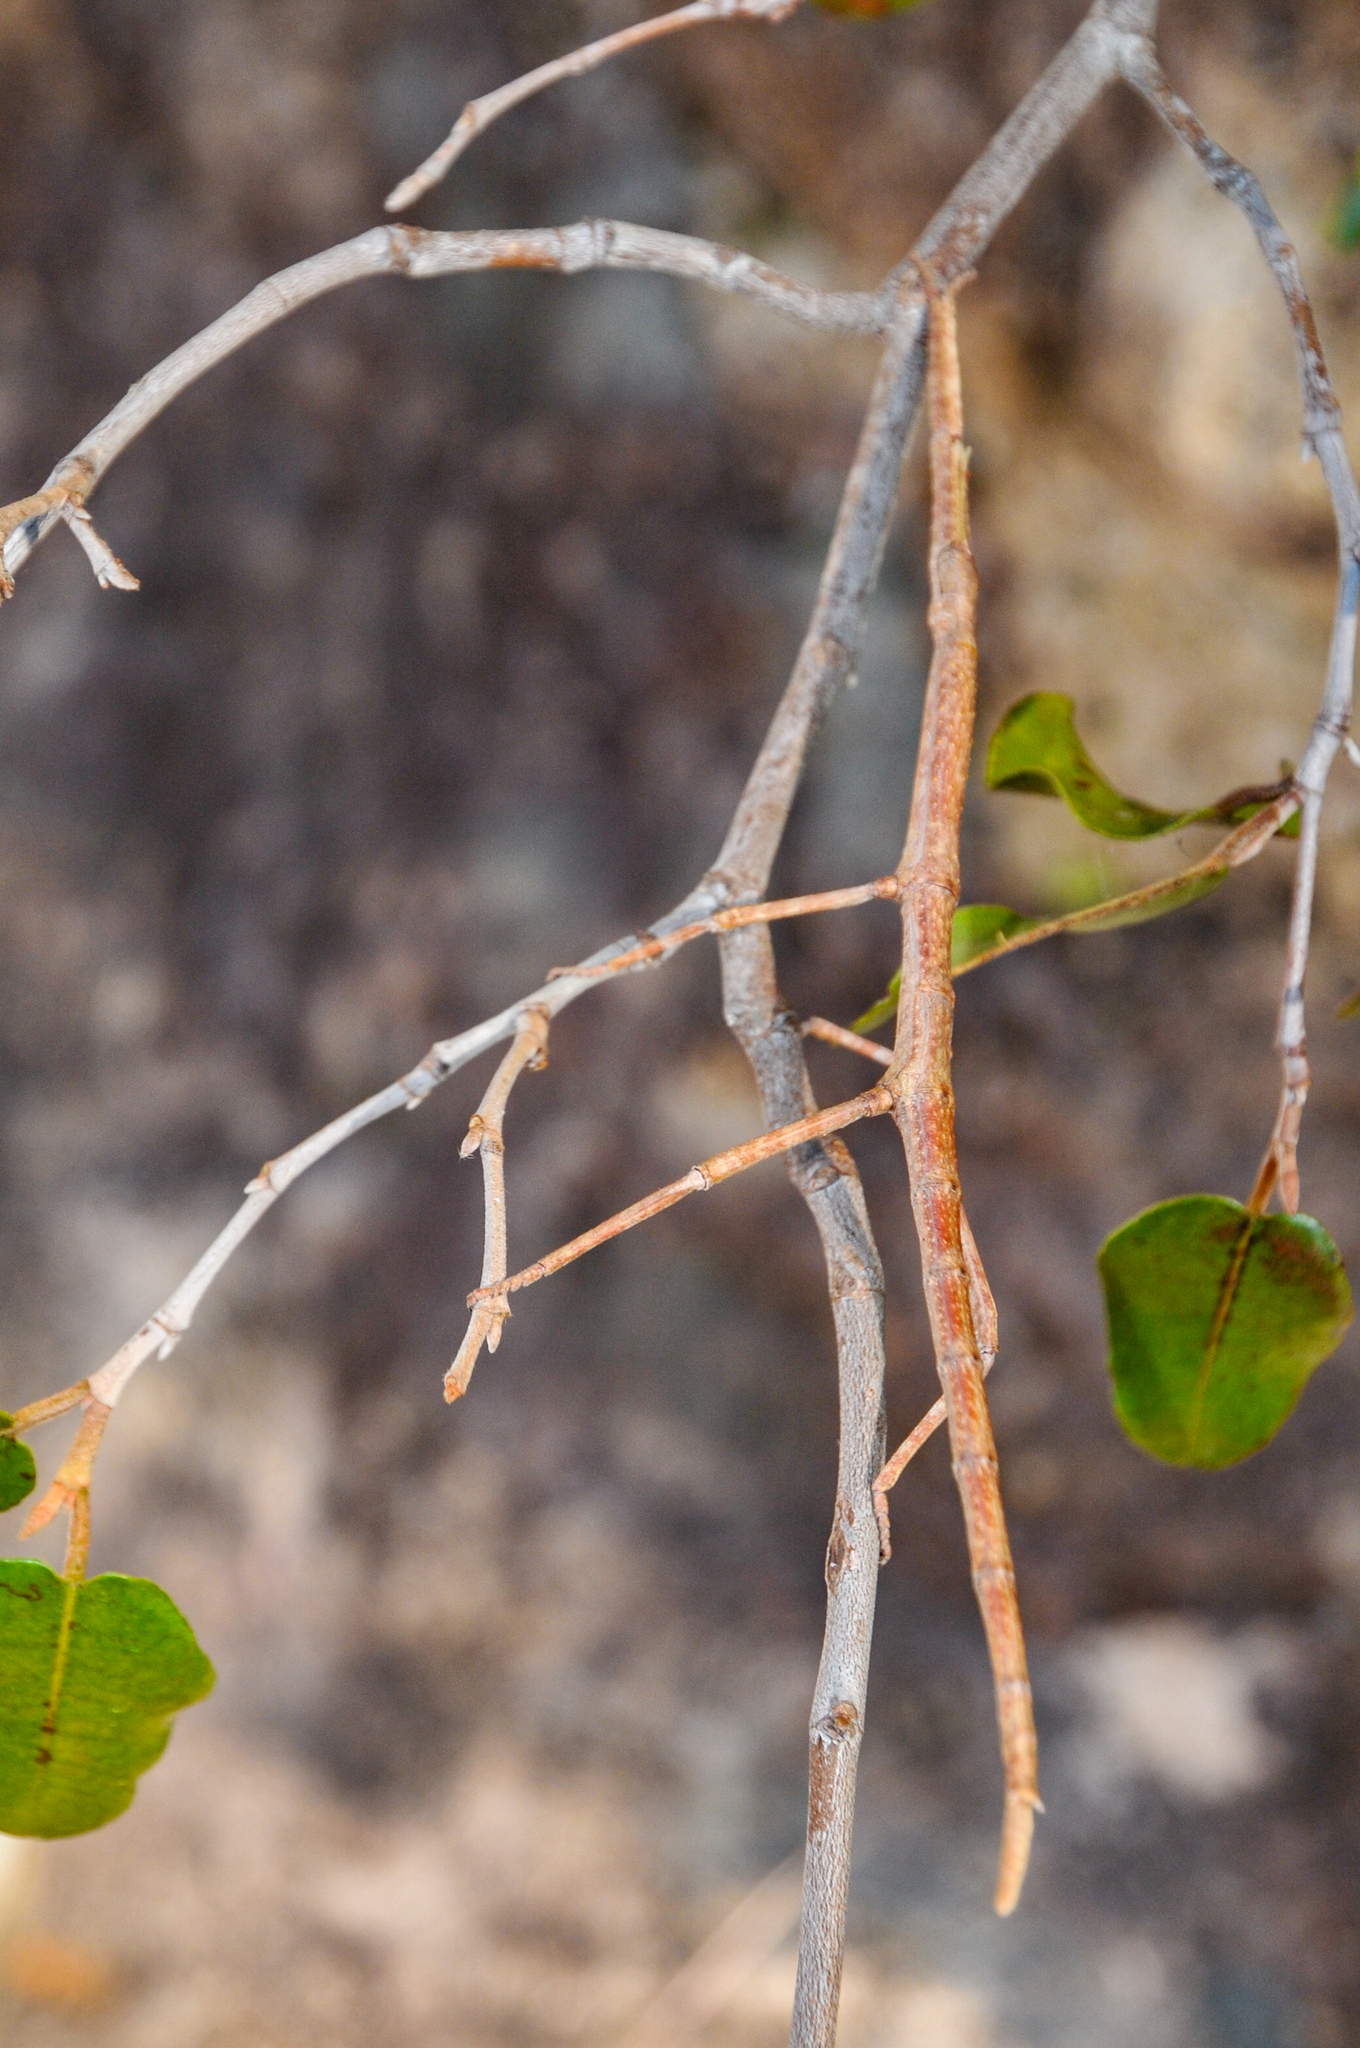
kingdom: Animalia
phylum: Arthropoda
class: Insecta
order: Phasmida
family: Phasmatidae
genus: Achrioptera
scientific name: Achrioptera impennis
